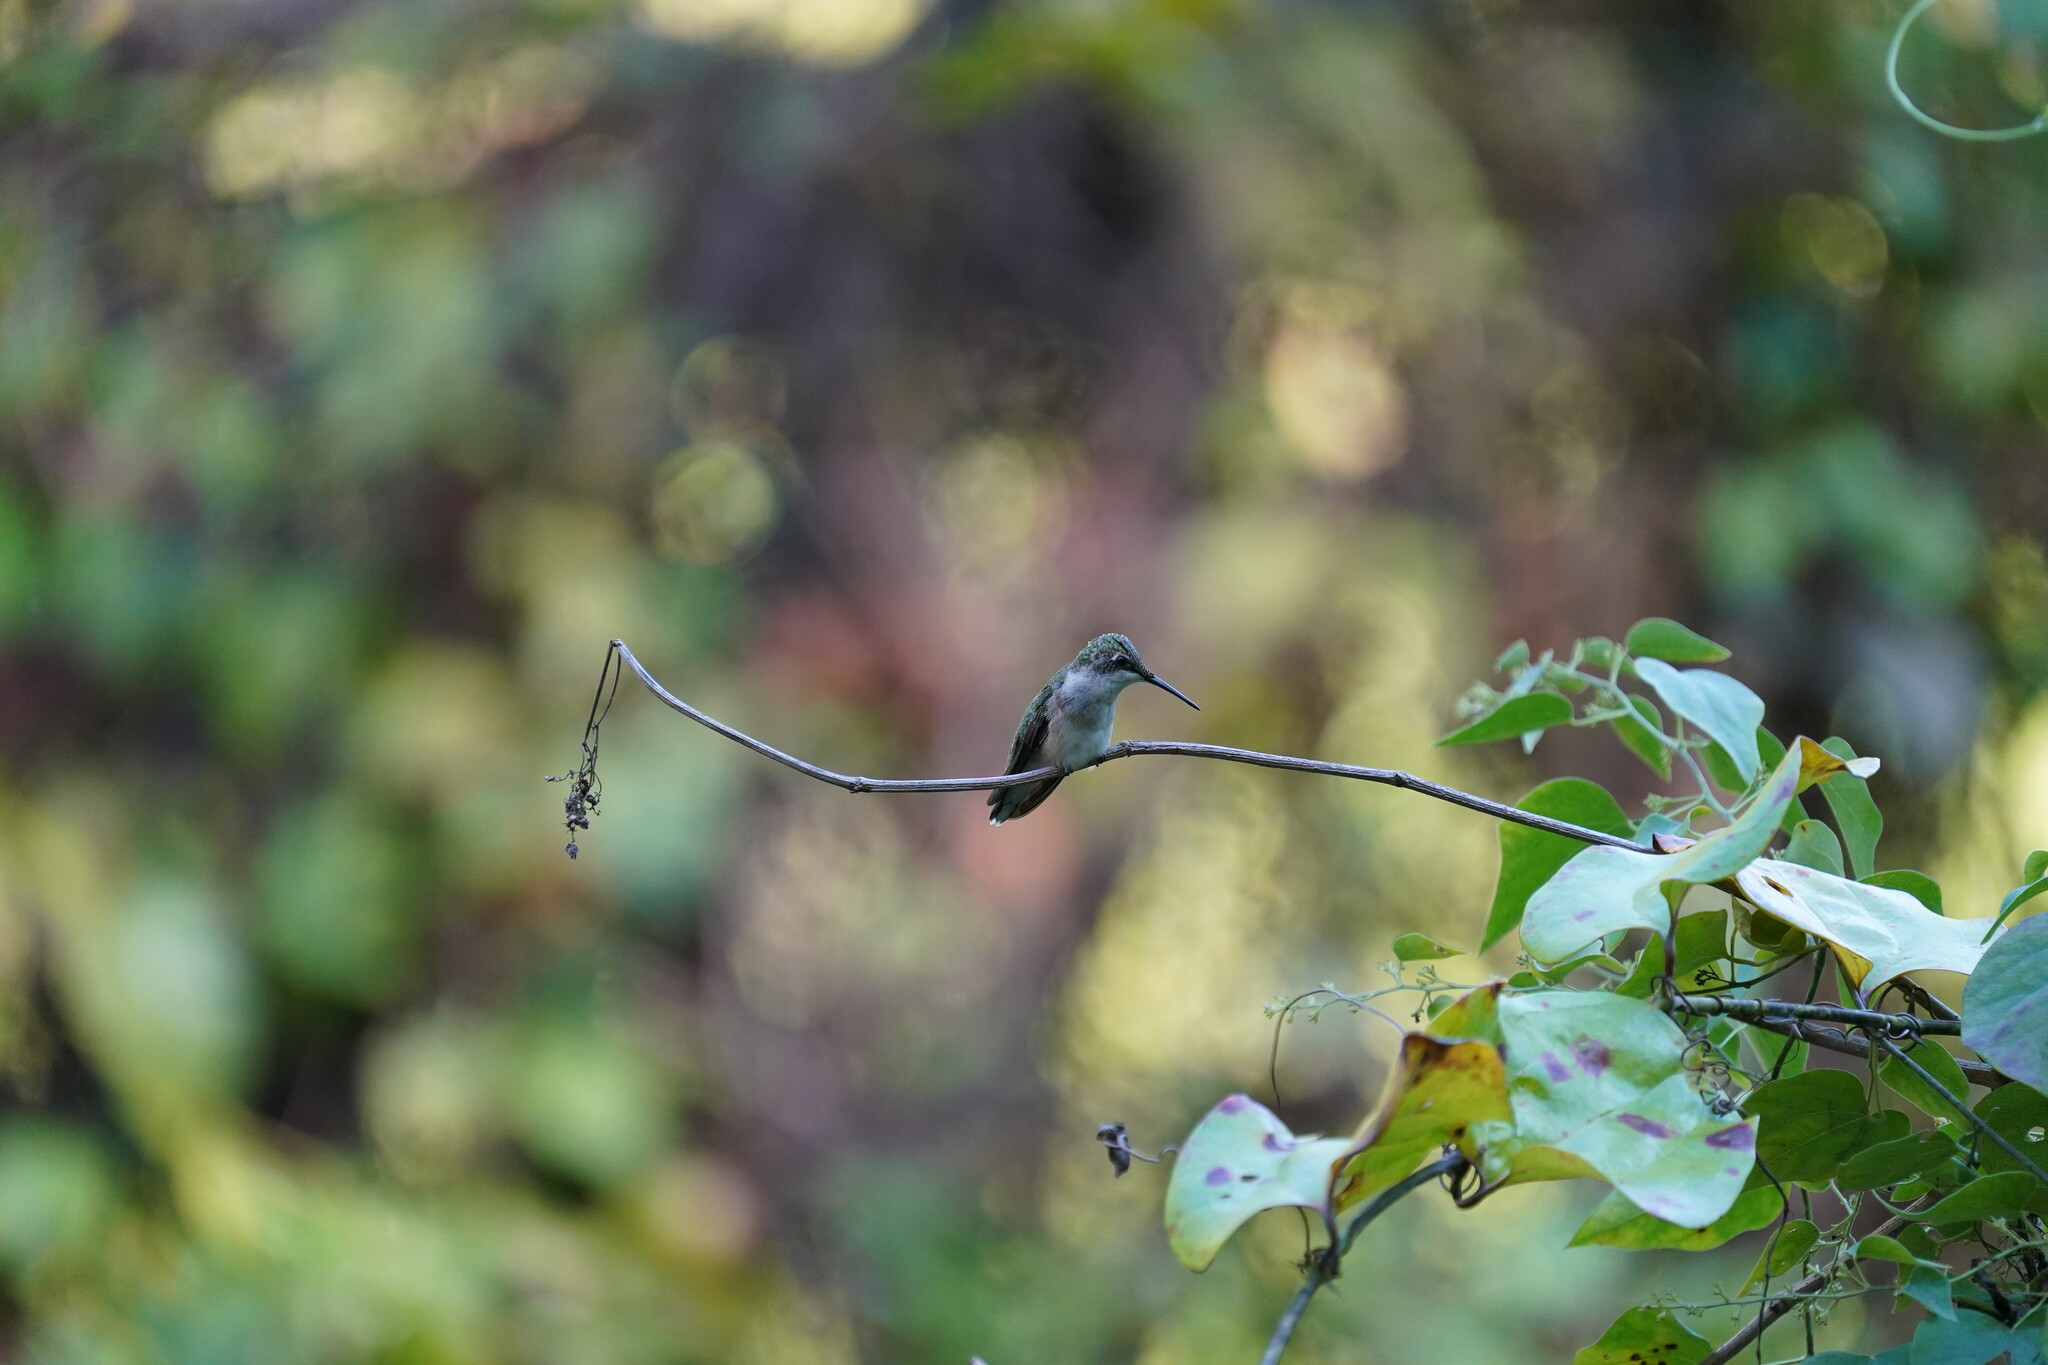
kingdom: Animalia
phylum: Chordata
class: Aves
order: Apodiformes
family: Trochilidae
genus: Archilochus
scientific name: Archilochus colubris
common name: Ruby-throated hummingbird
